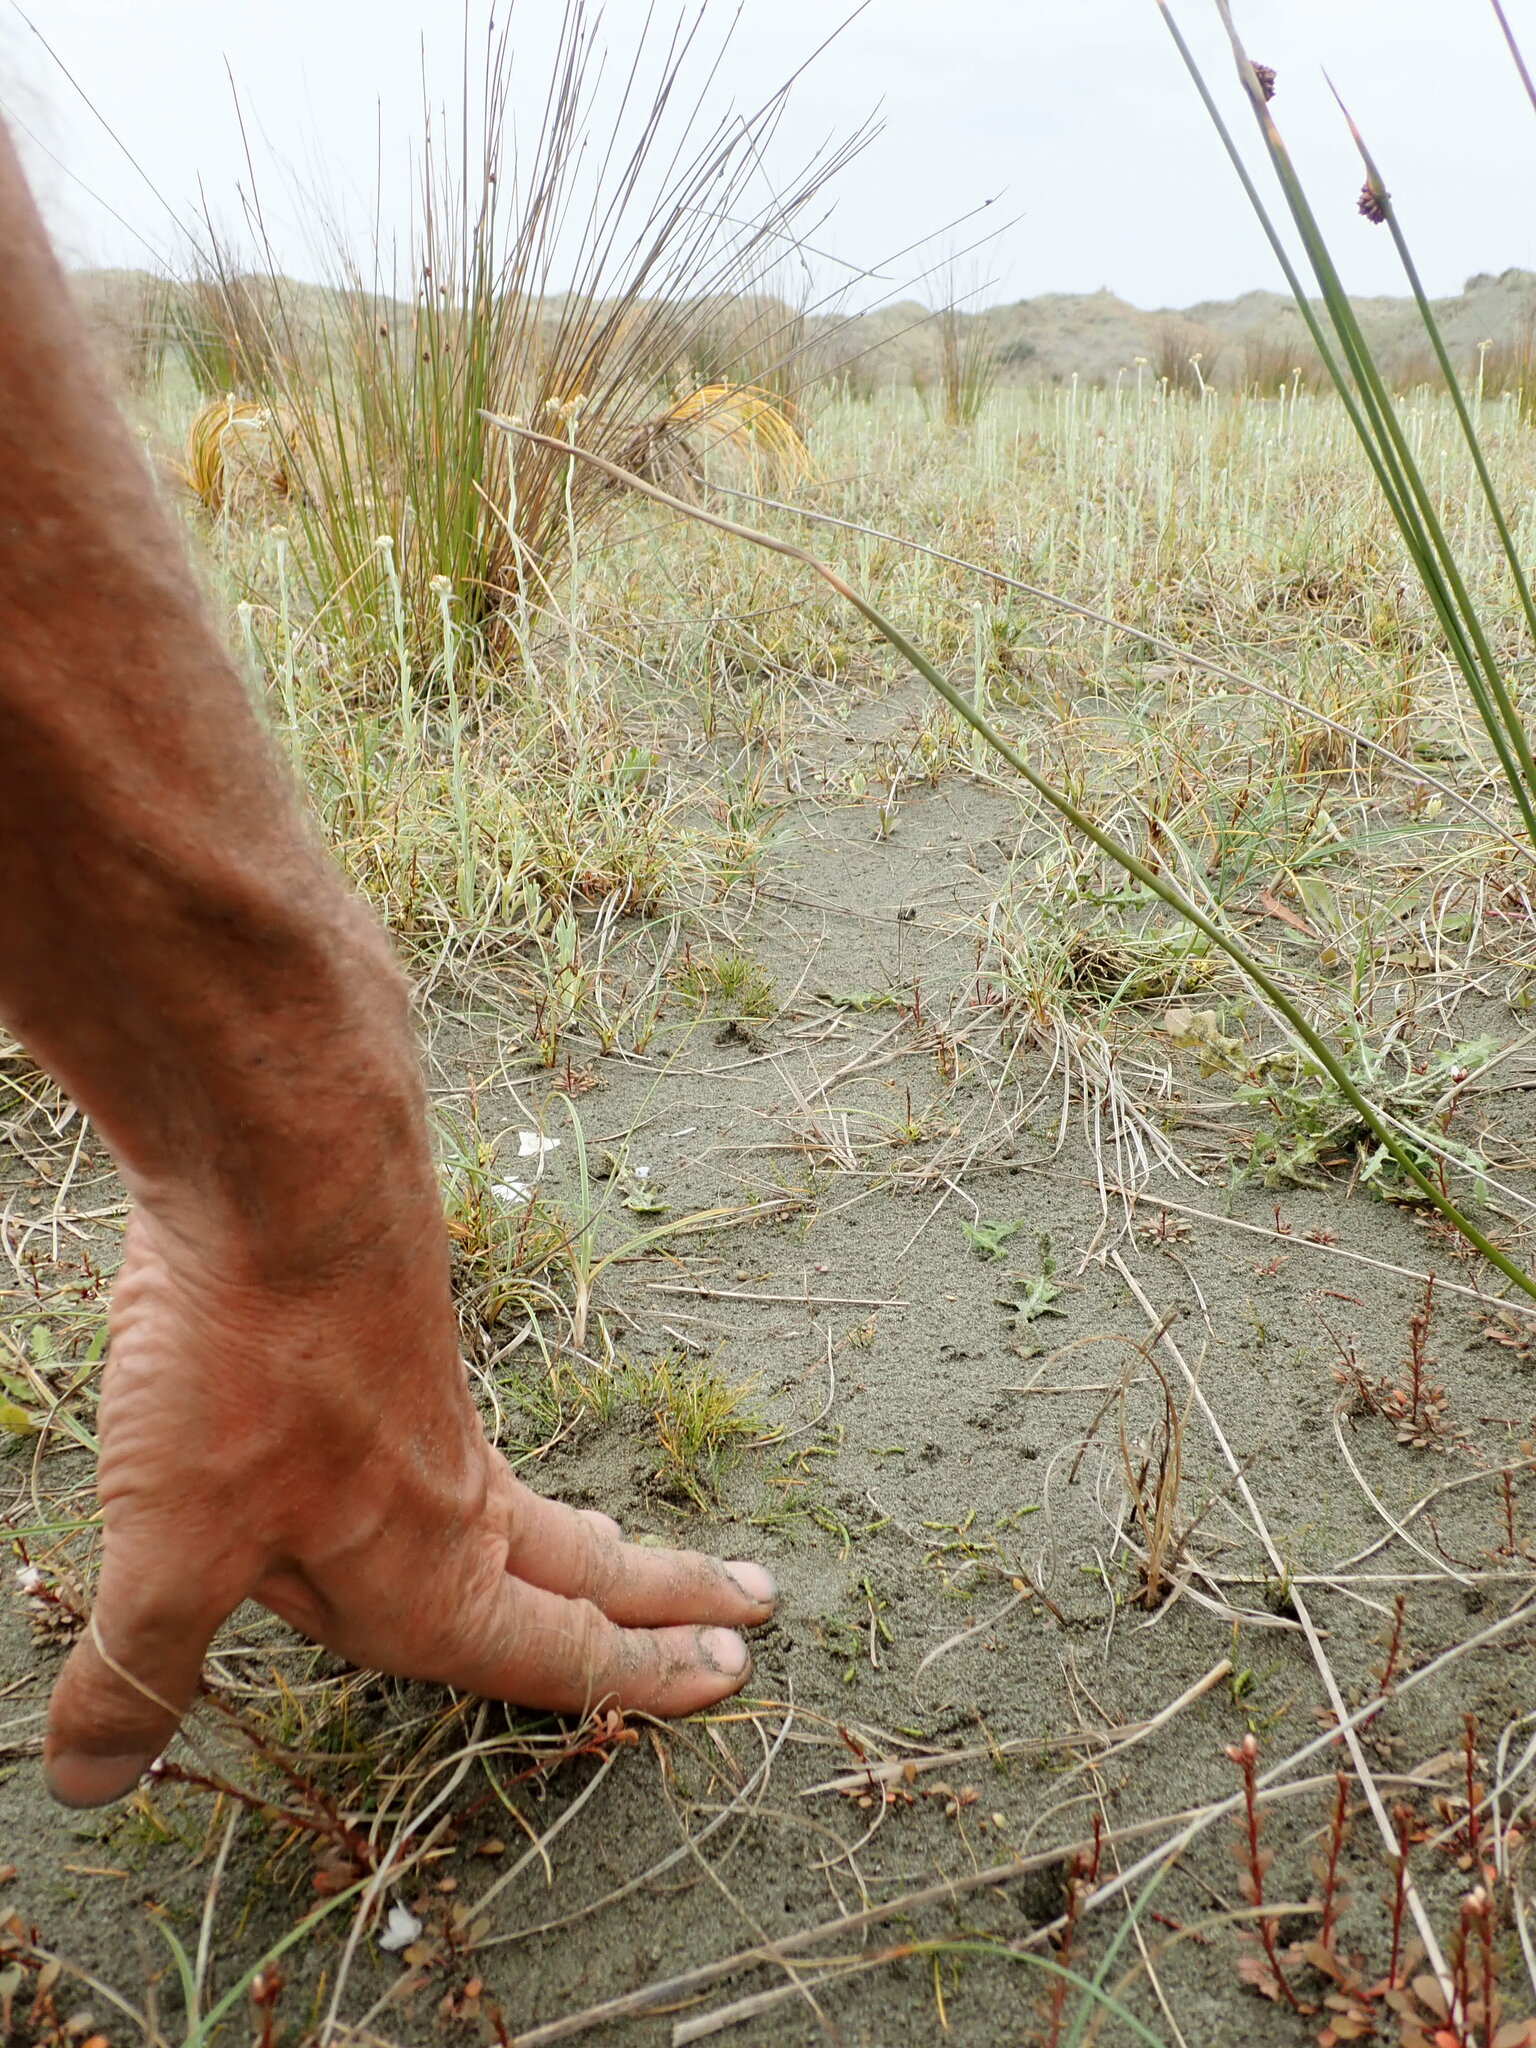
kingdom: Plantae
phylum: Tracheophyta
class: Magnoliopsida
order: Apiales
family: Apiaceae
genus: Lilaeopsis
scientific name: Lilaeopsis novae-zelandiae
